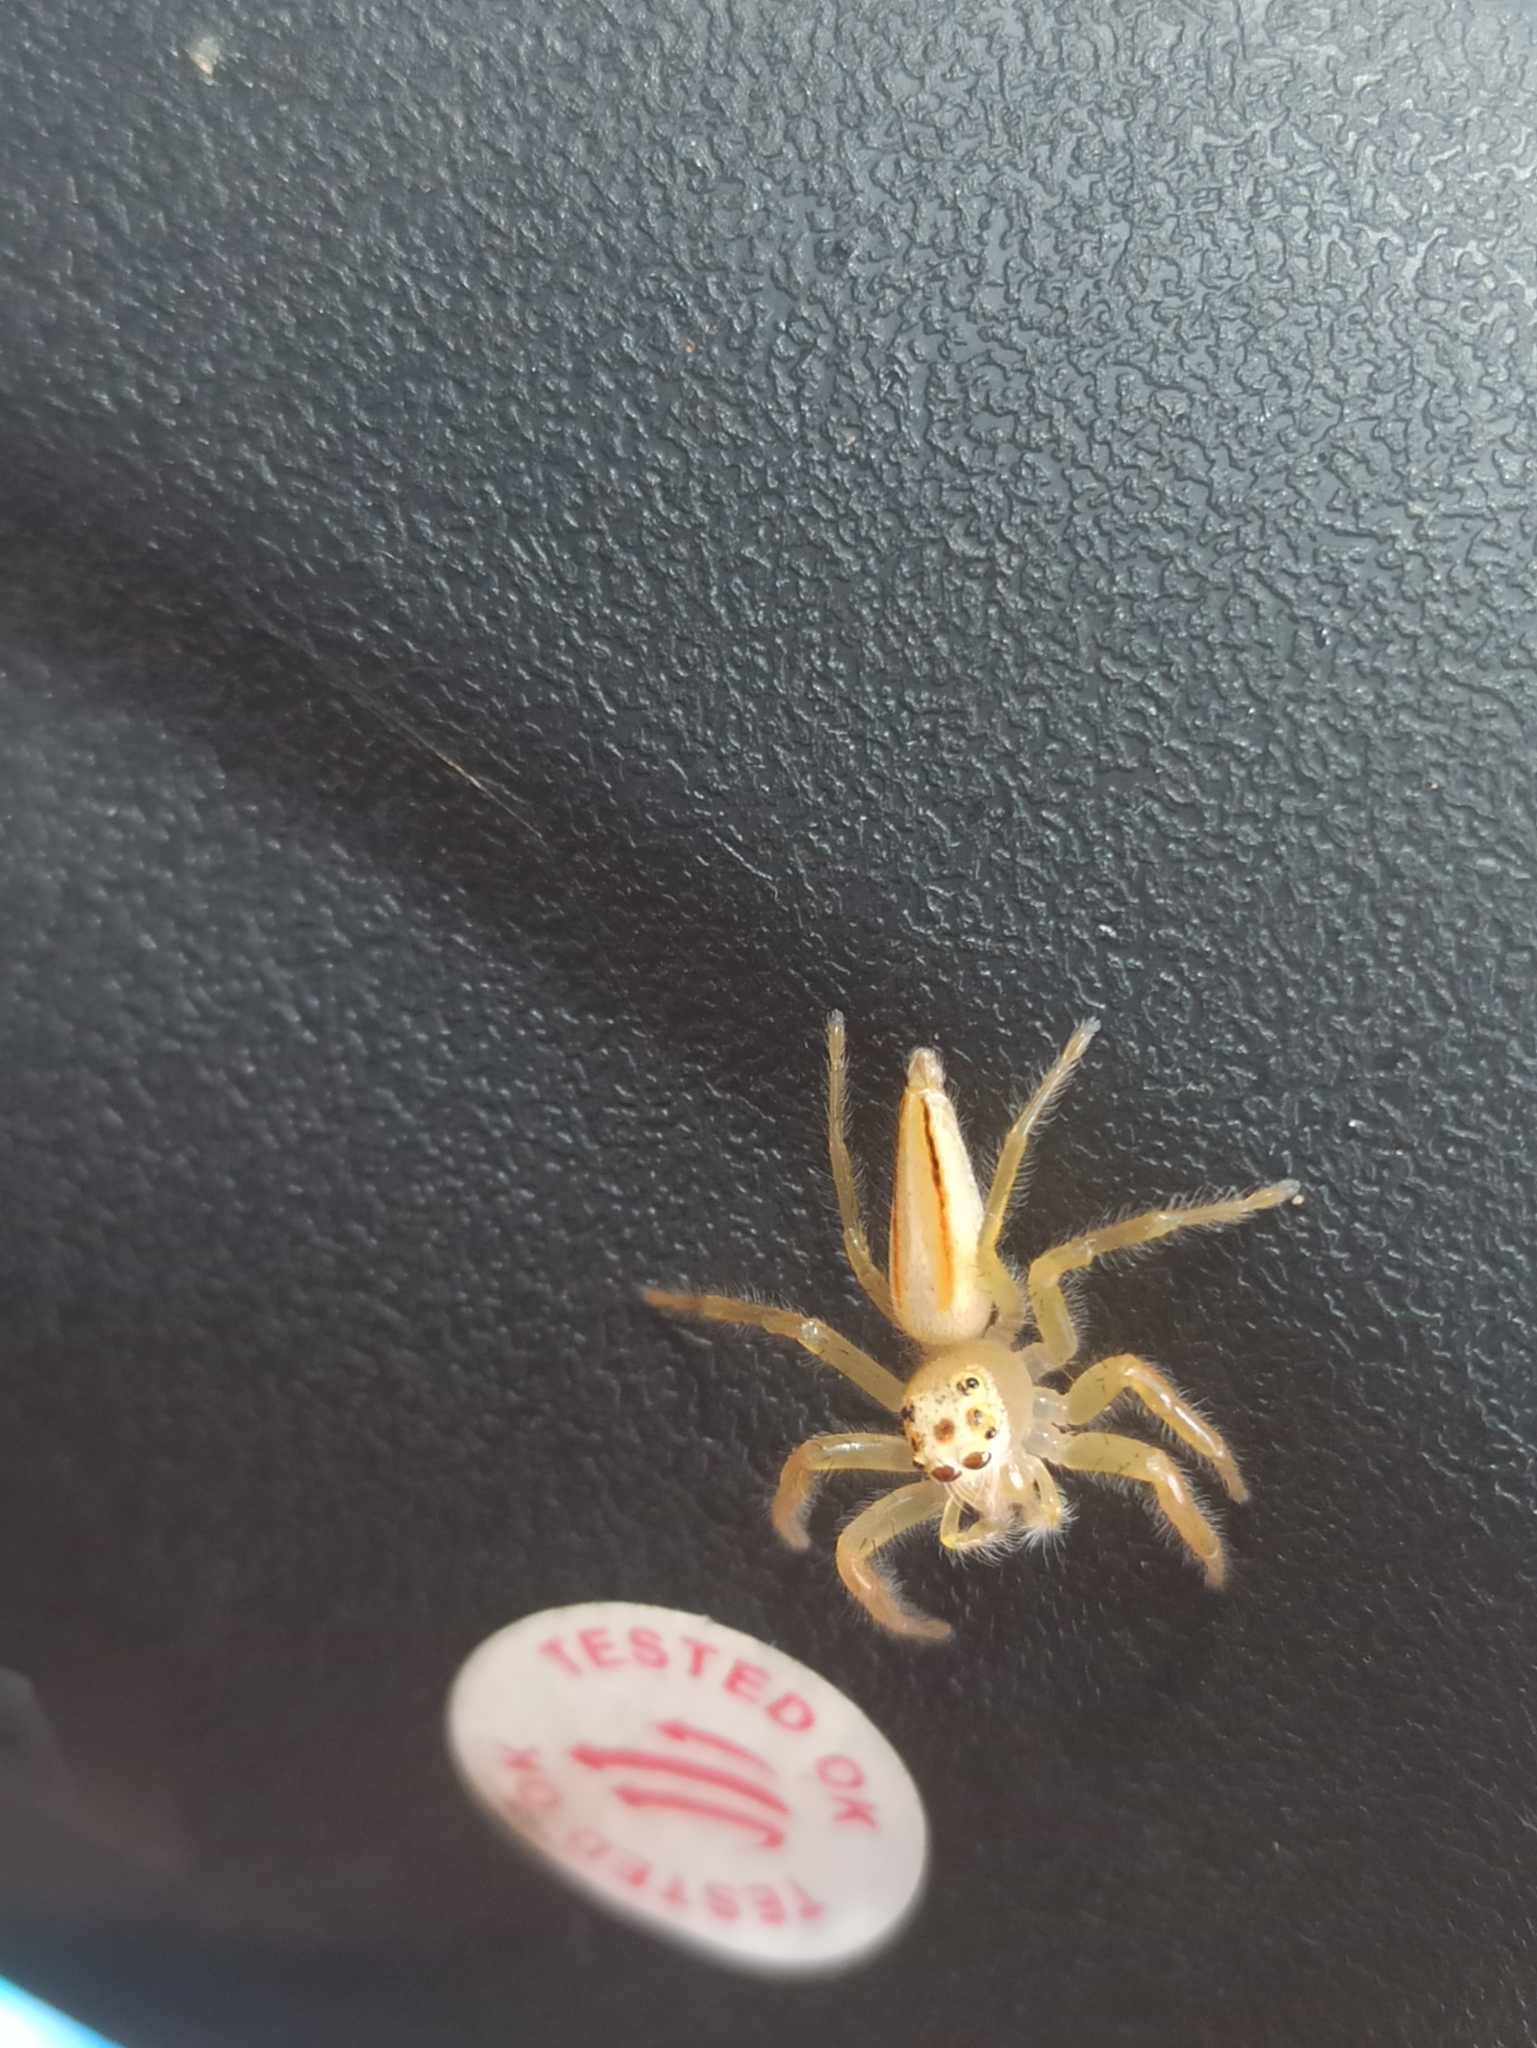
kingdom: Animalia
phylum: Arthropoda
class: Arachnida
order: Araneae
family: Salticidae
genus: Telamonia
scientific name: Telamonia dimidiata
